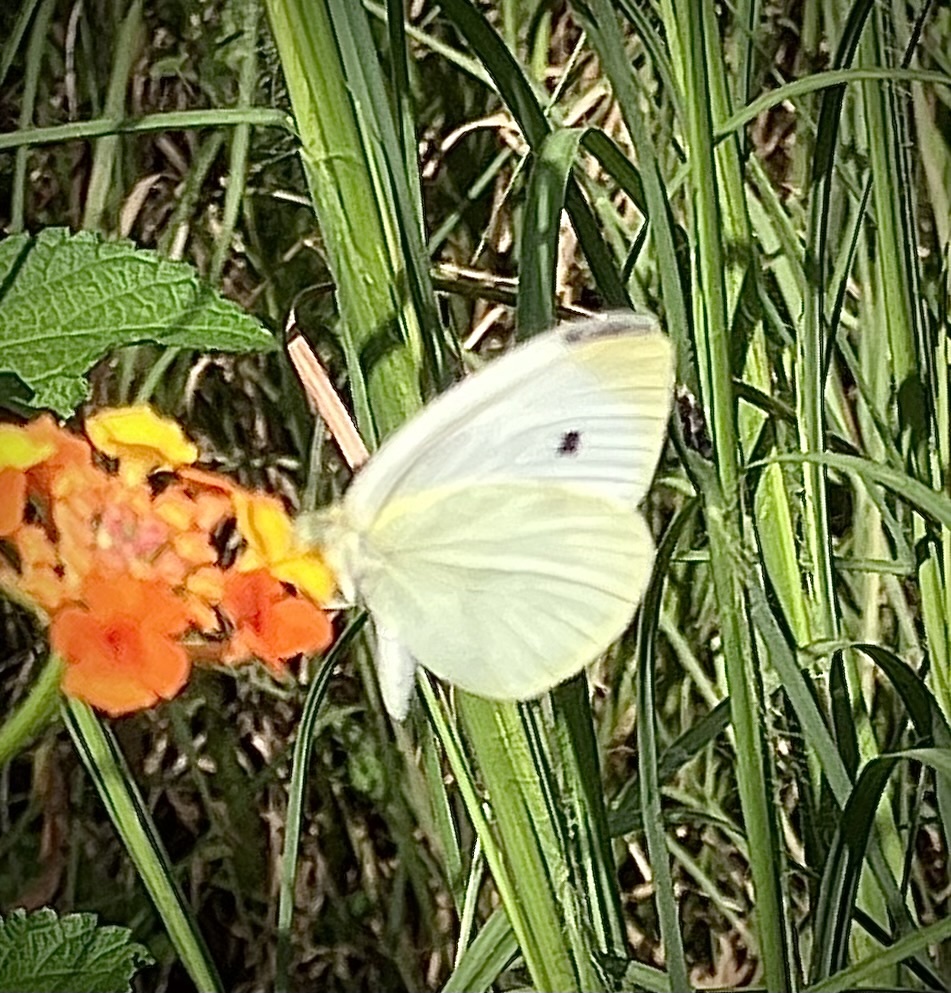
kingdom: Animalia
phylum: Arthropoda
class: Insecta
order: Lepidoptera
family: Pieridae
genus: Pieris
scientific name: Pieris rapae
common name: Small white
